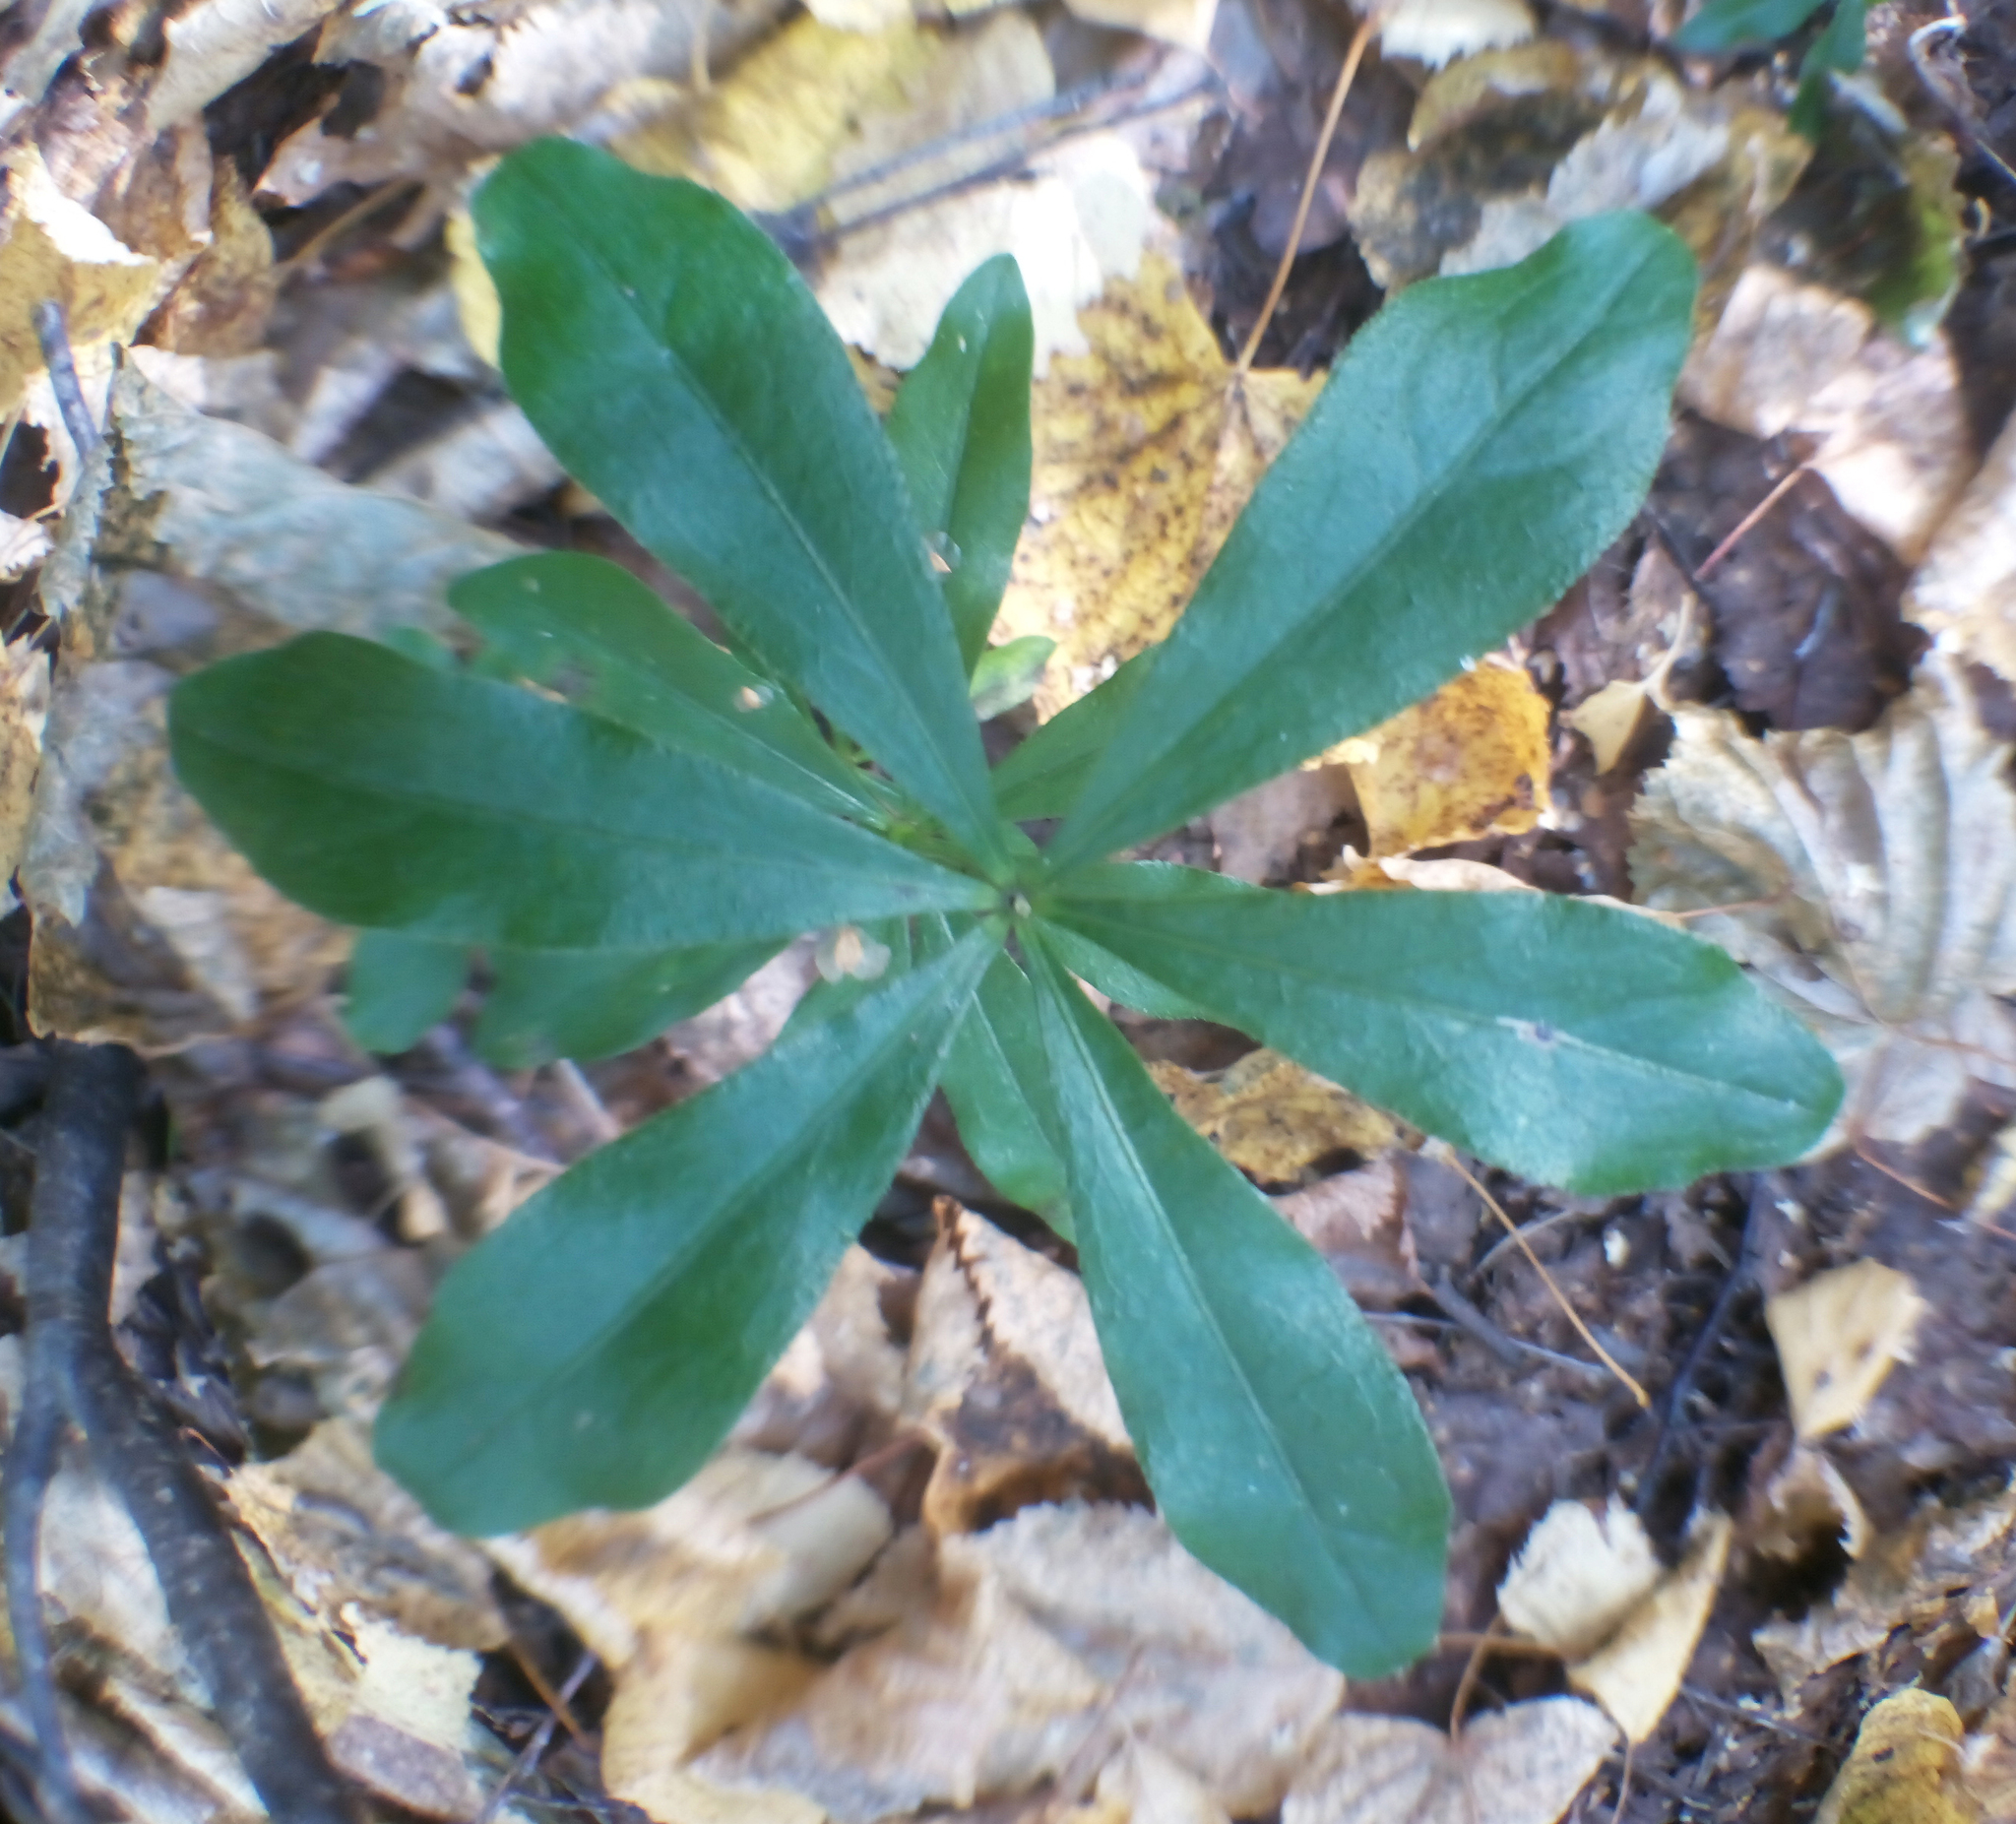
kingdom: Plantae
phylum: Tracheophyta
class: Magnoliopsida
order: Malvales
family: Thymelaeaceae
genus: Daphne
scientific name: Daphne mezereum
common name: Mezereon
